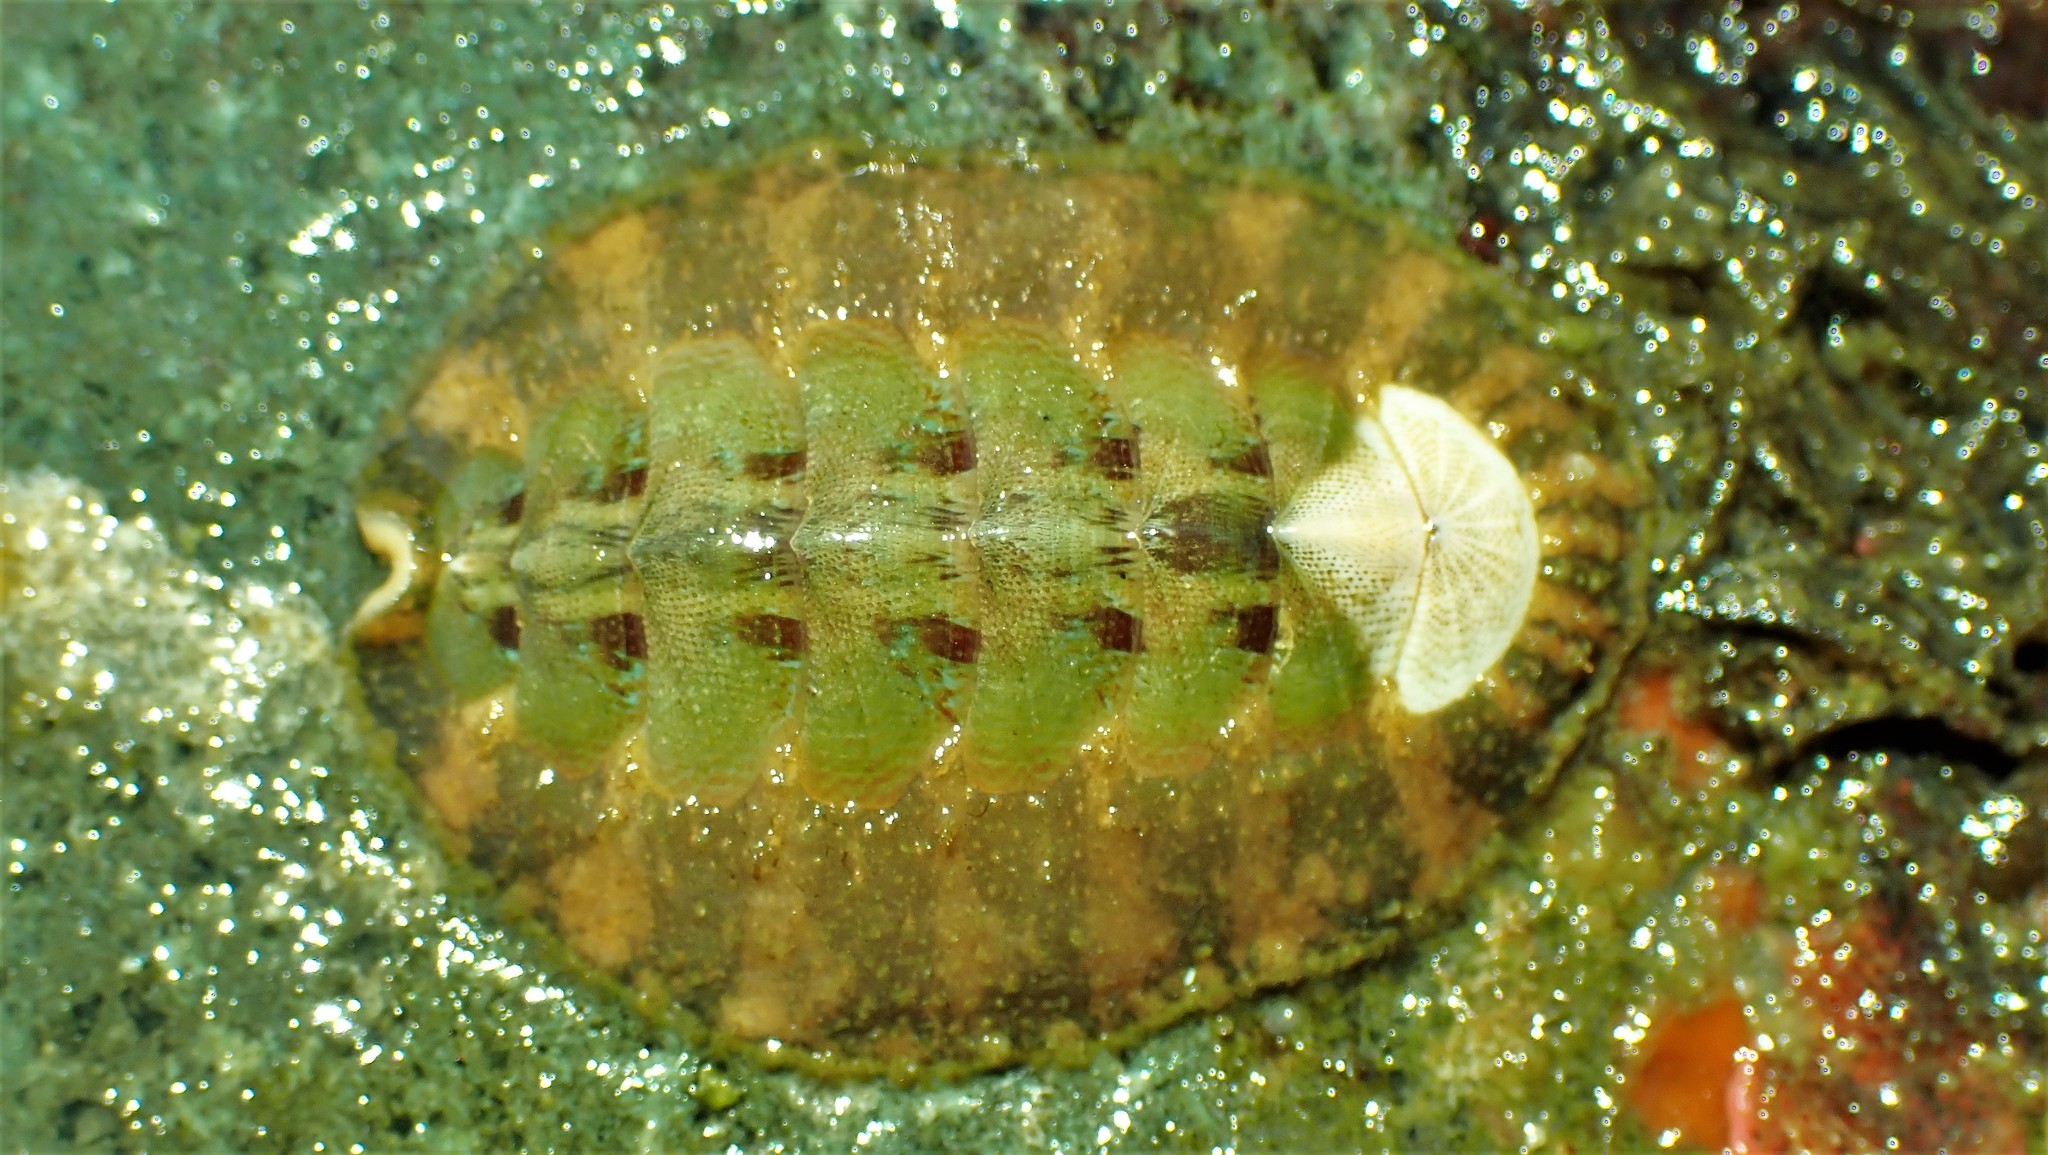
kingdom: Animalia
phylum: Mollusca
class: Polyplacophora
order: Chitonida
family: Mopaliidae
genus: Mopalia
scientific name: Mopalia swanii
